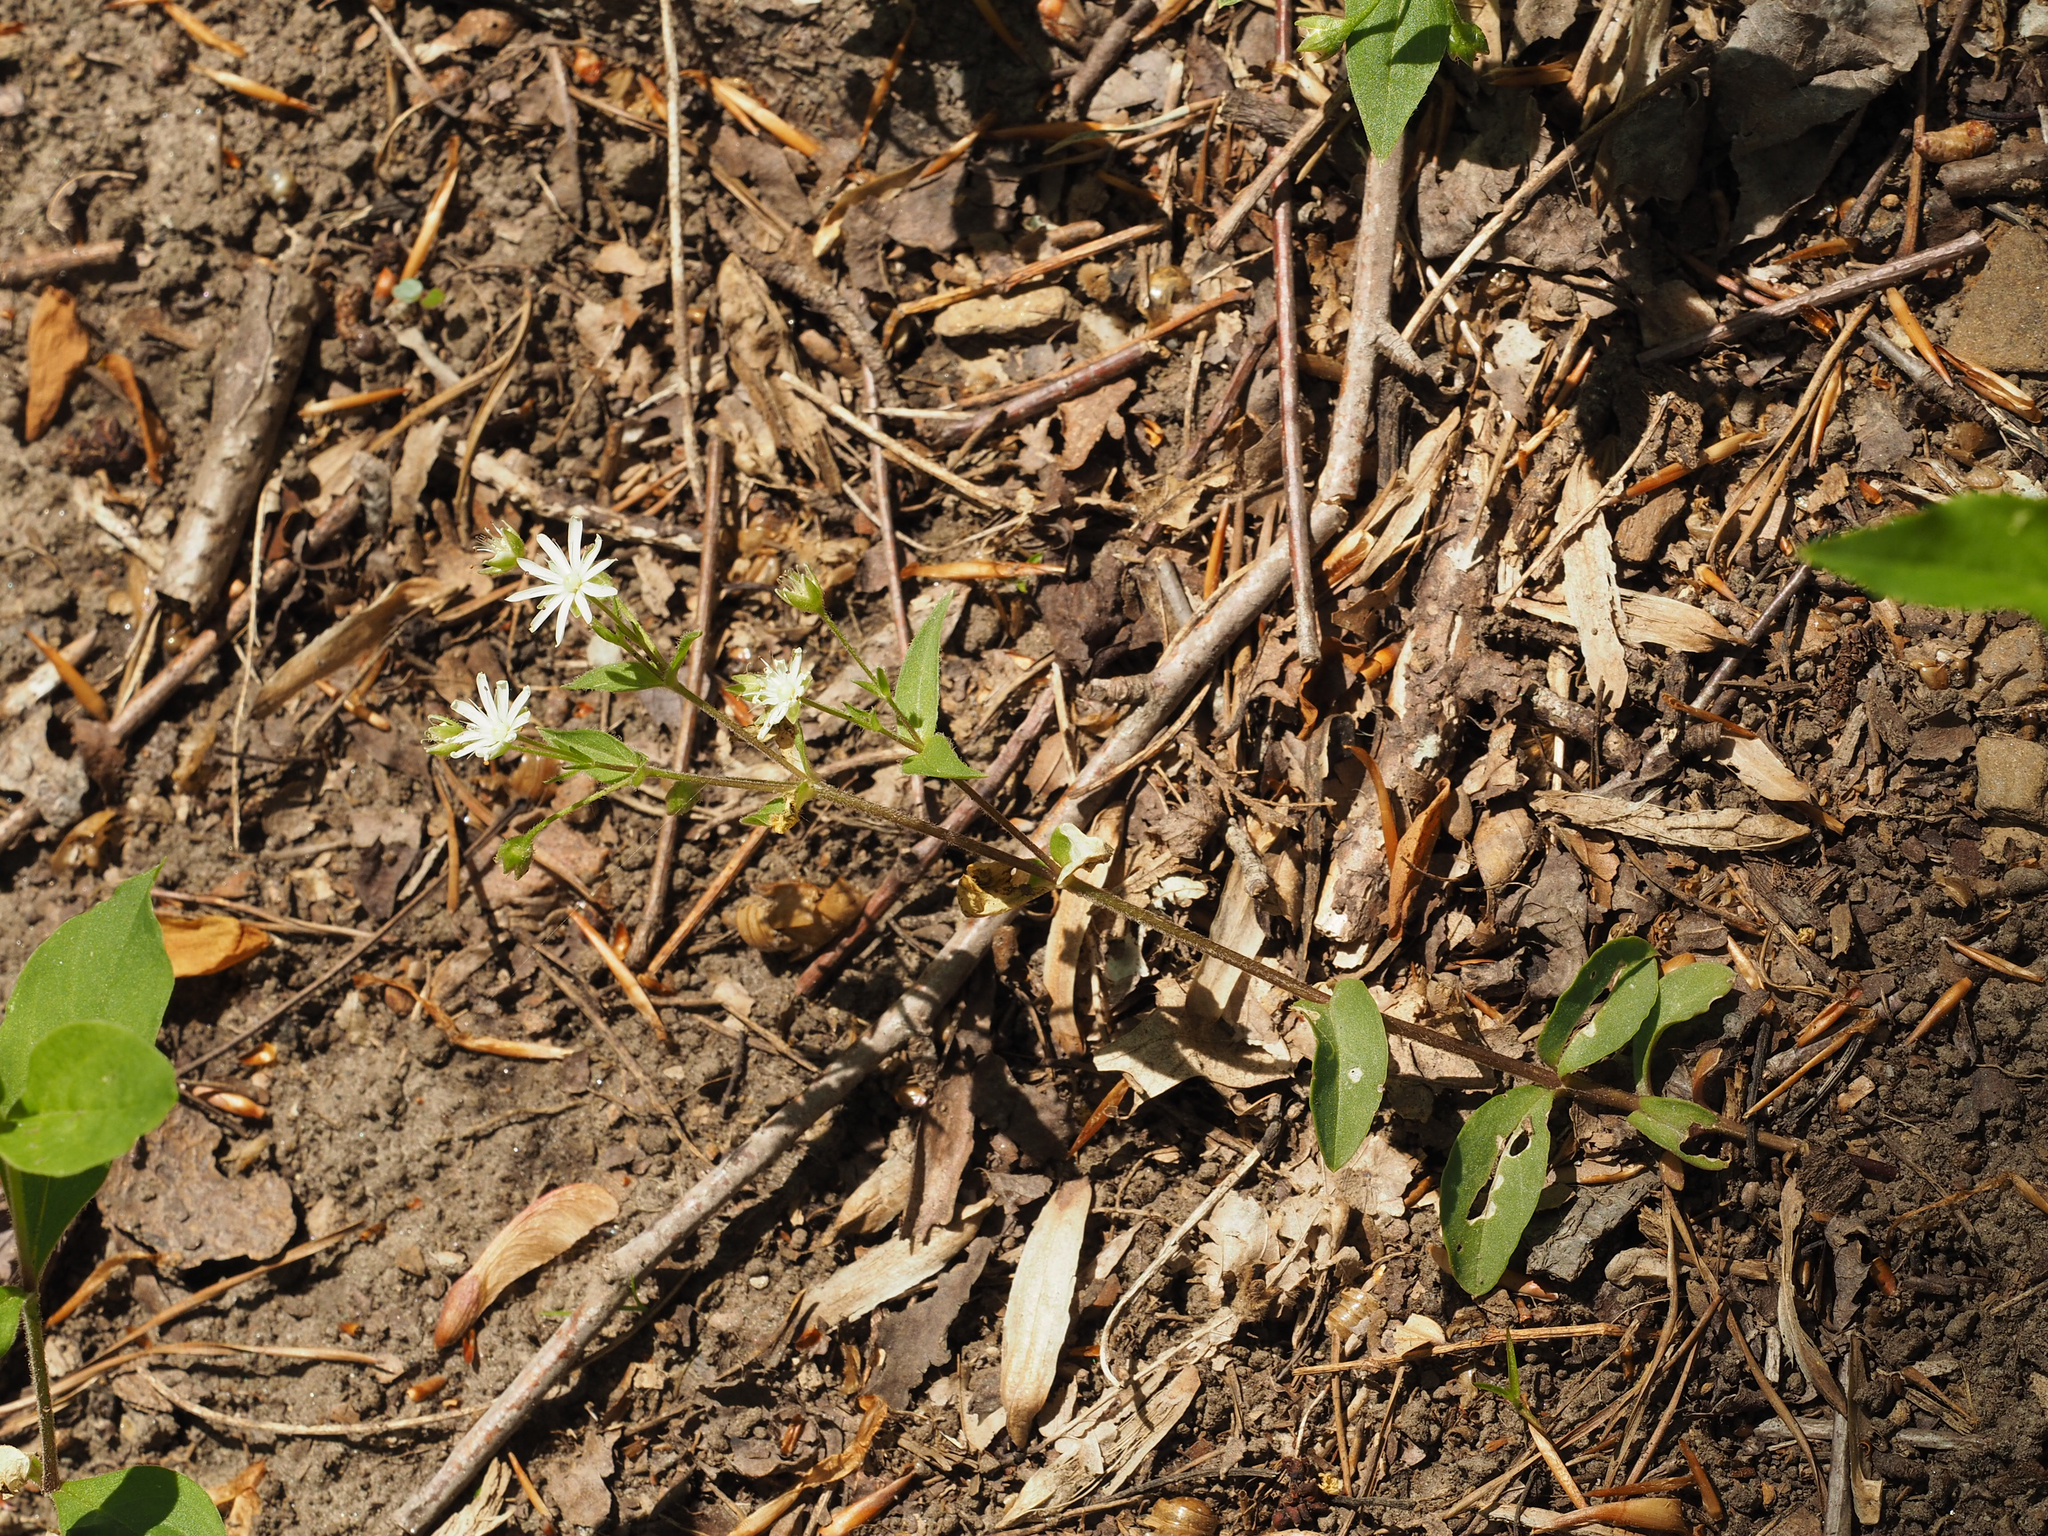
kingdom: Plantae
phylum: Tracheophyta
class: Magnoliopsida
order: Caryophyllales
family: Caryophyllaceae
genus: Stellaria
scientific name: Stellaria pubera
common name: Star chickweed
